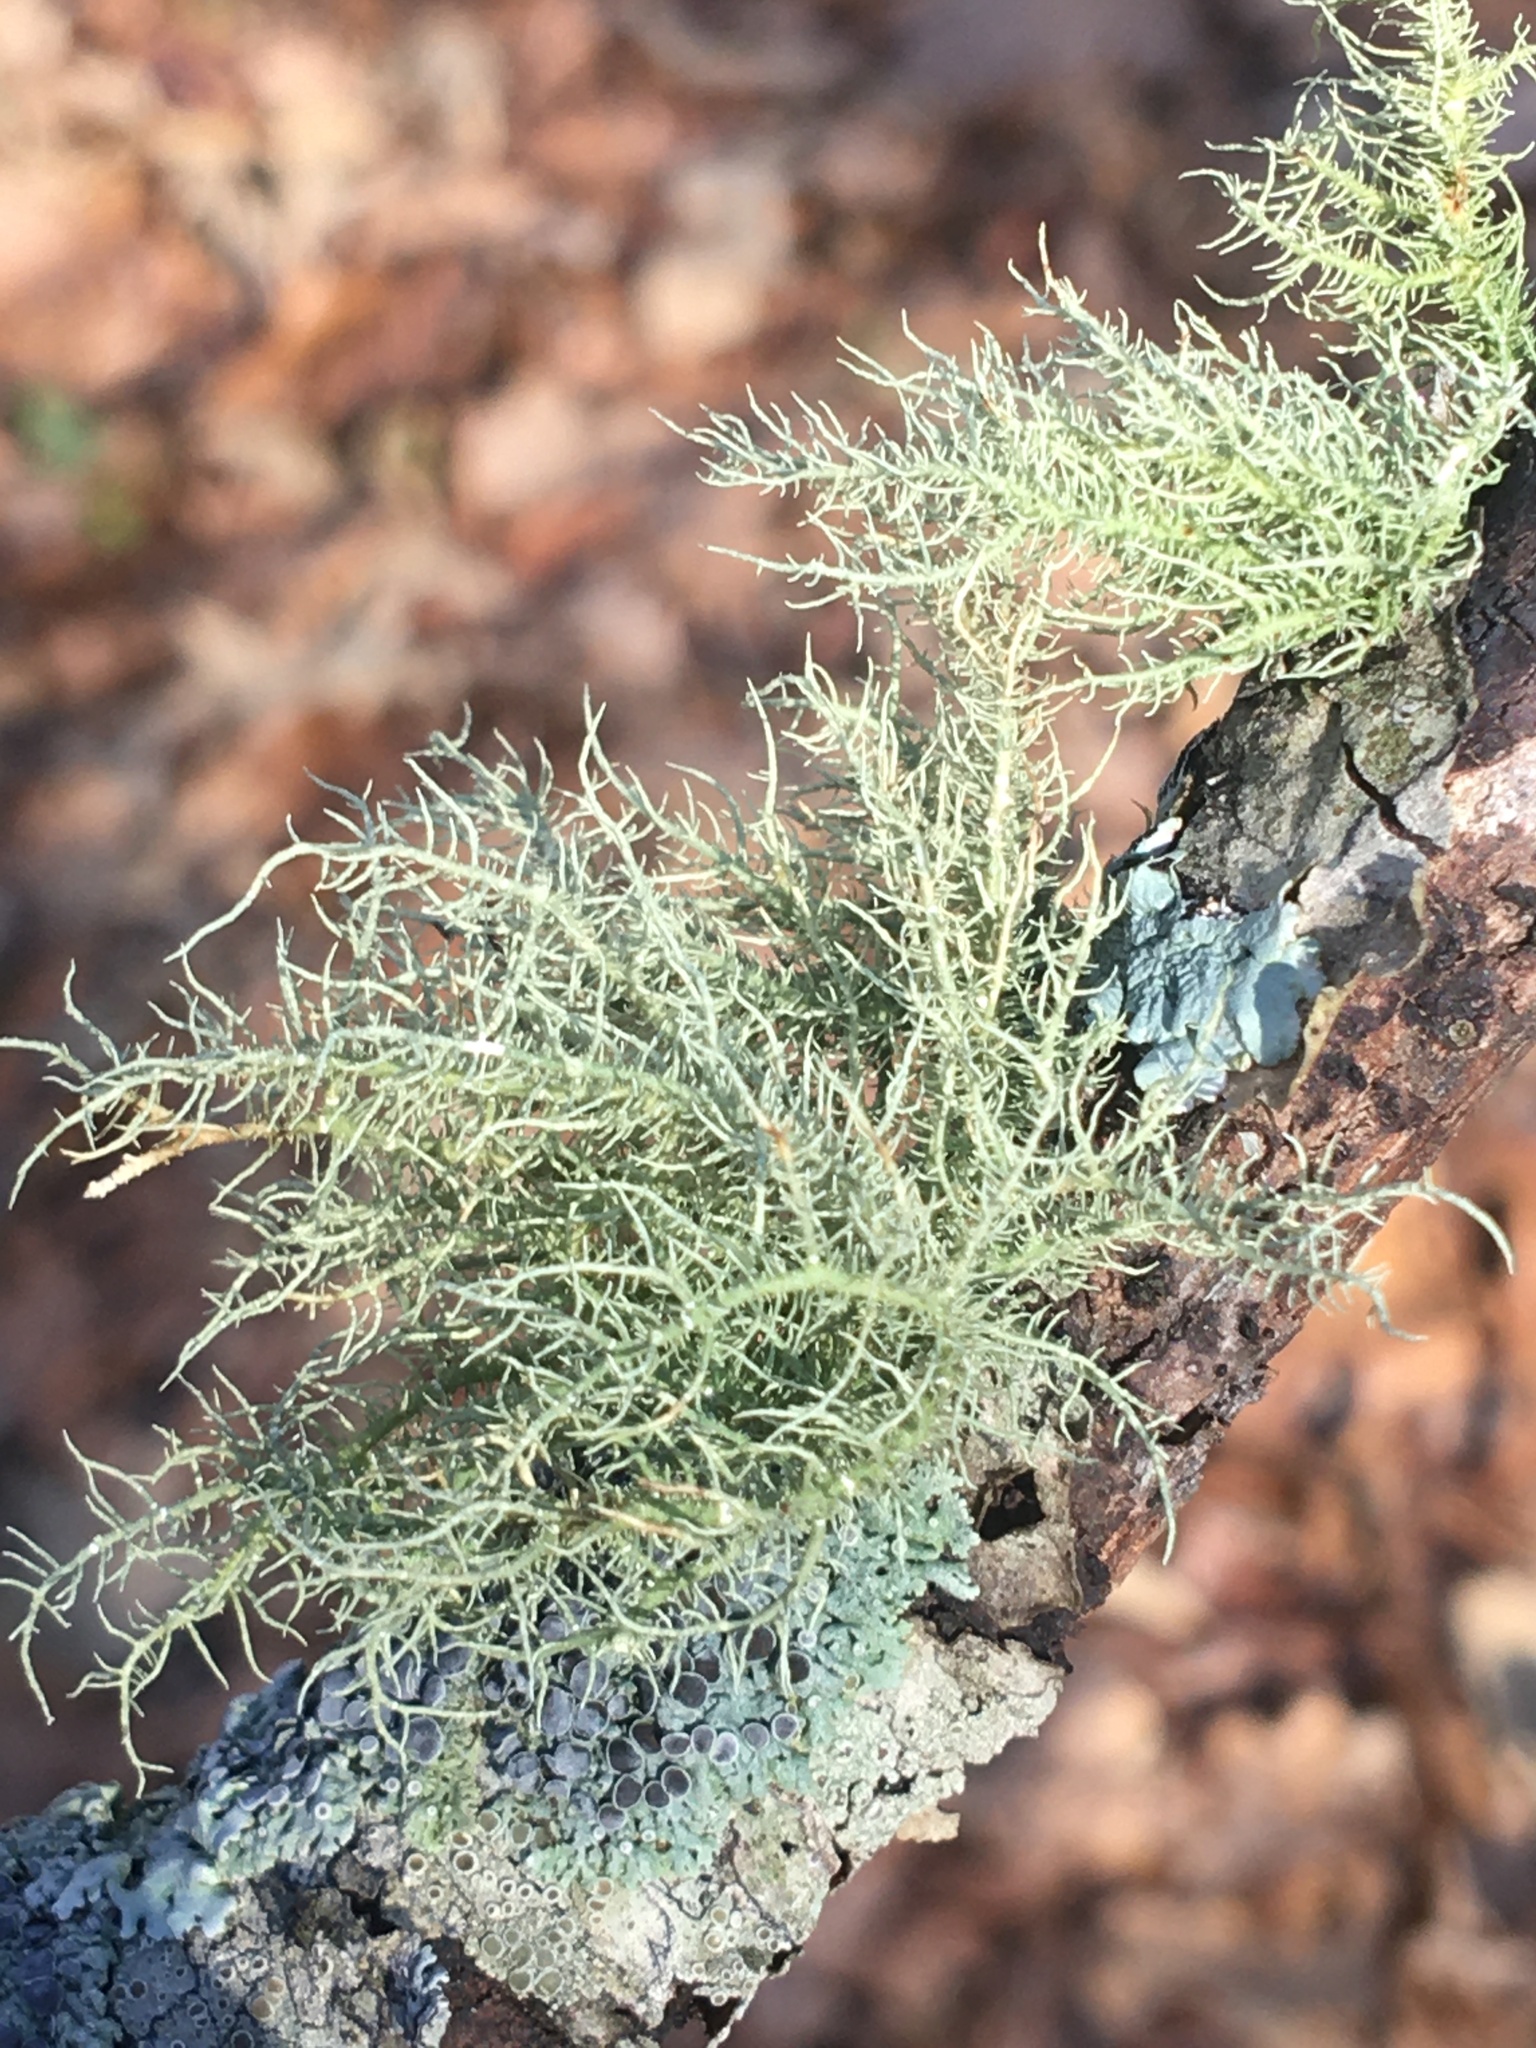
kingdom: Fungi
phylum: Ascomycota
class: Lecanoromycetes
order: Lecanorales
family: Parmeliaceae
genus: Usnea
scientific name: Usnea strigosa
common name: Bushy beard lichen
